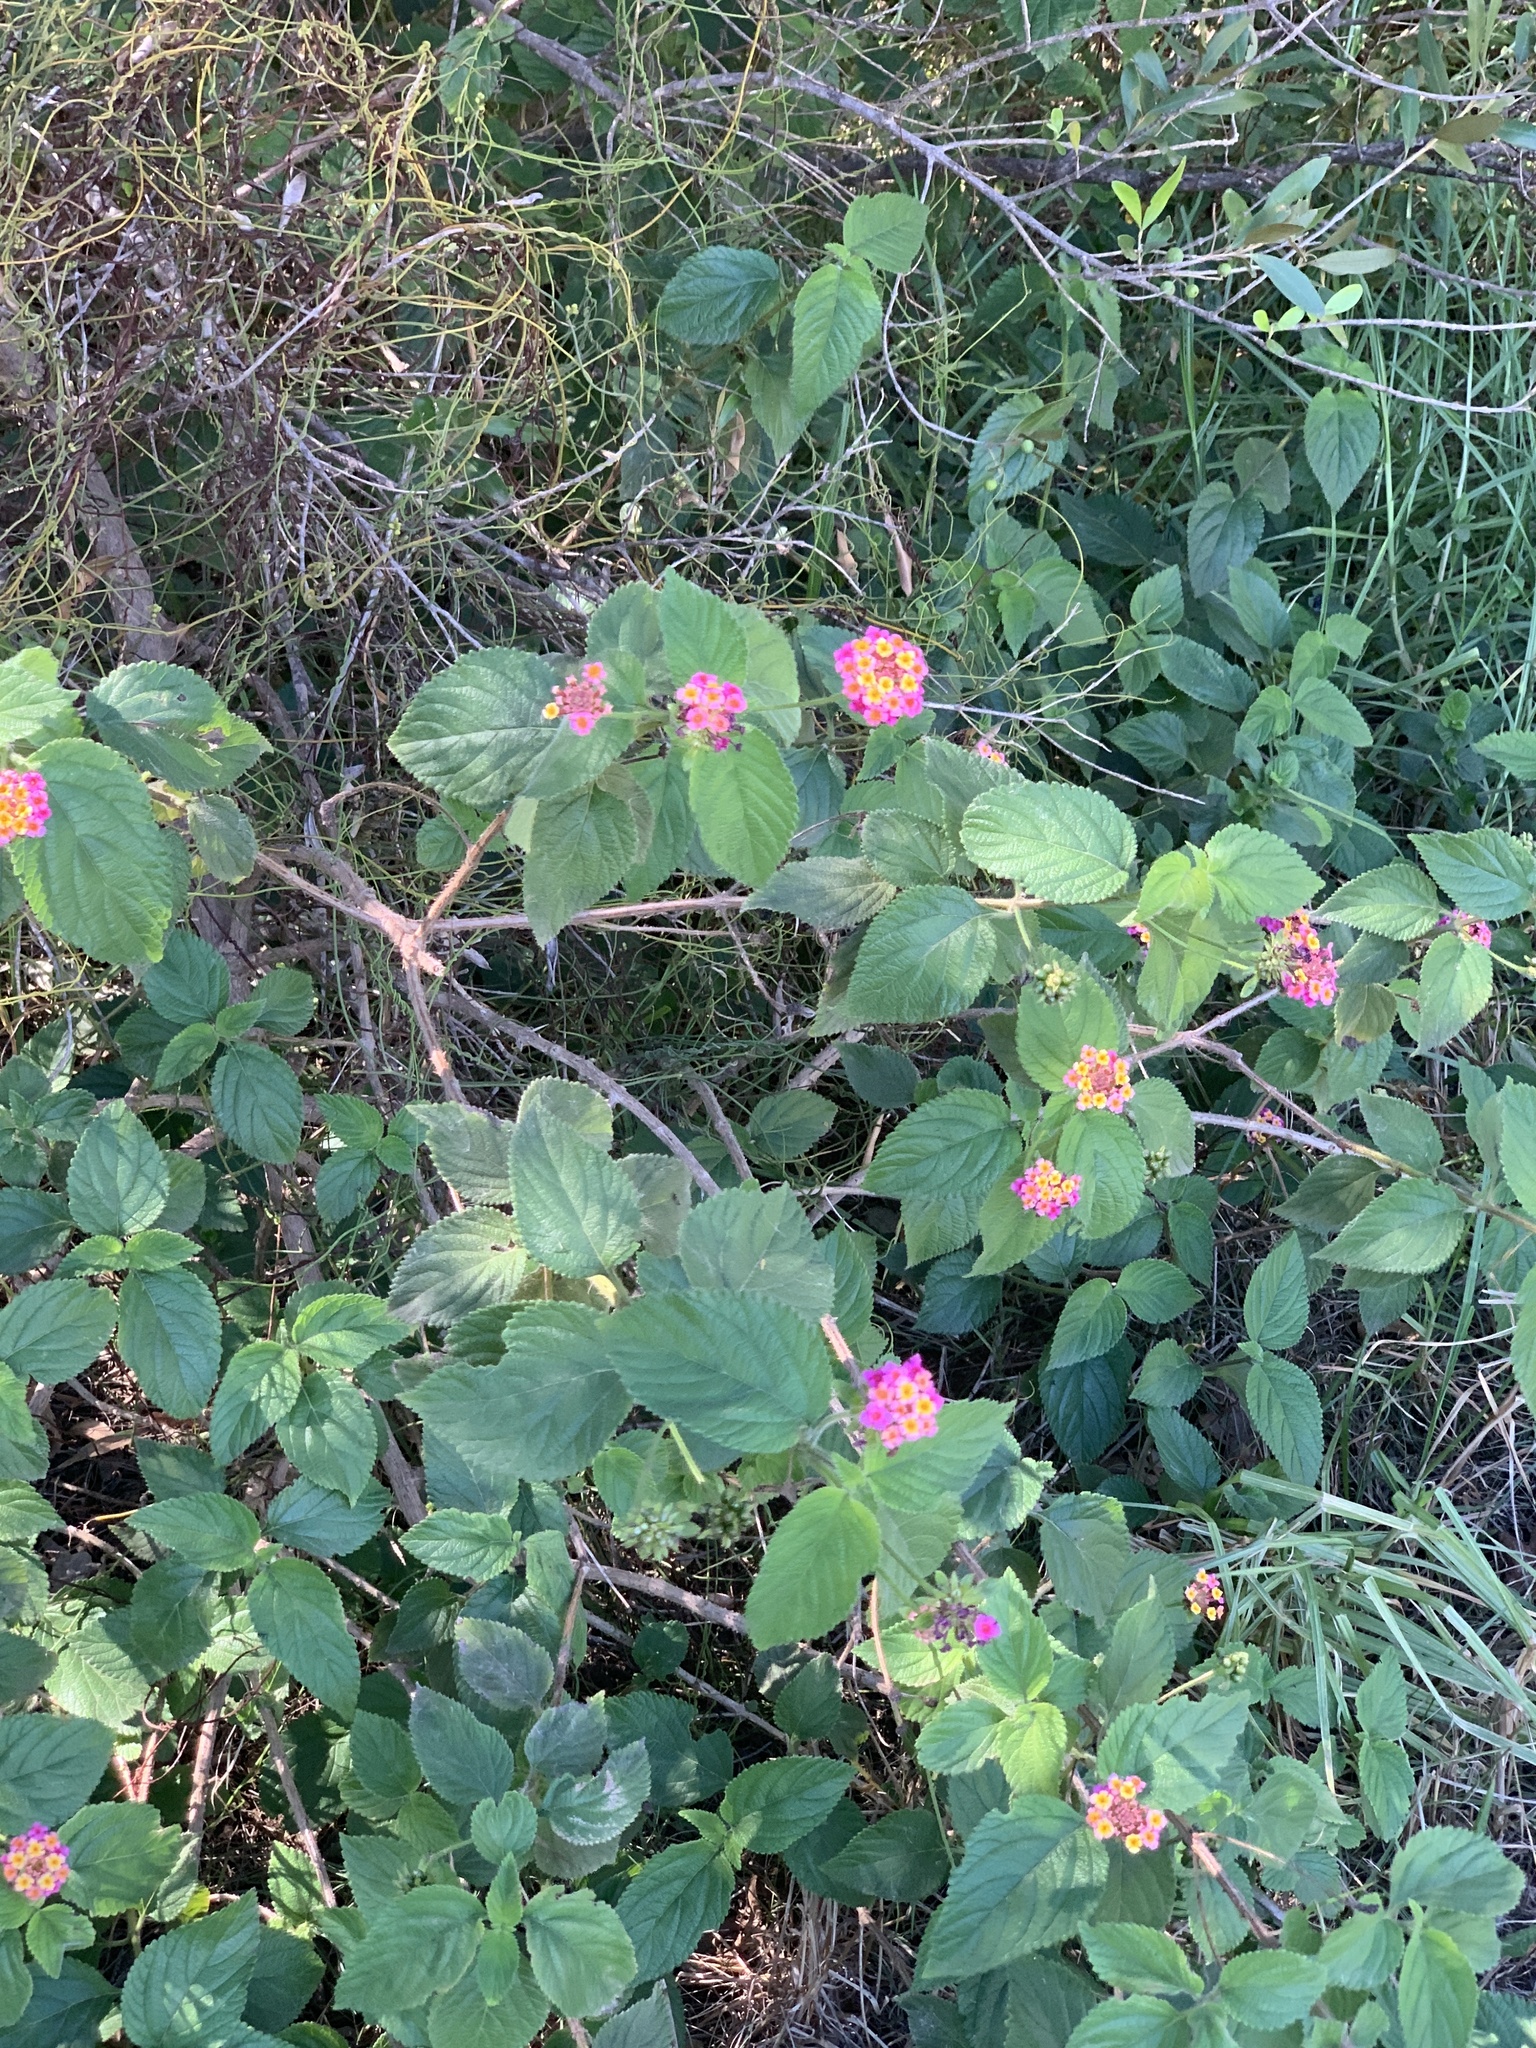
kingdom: Plantae
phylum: Tracheophyta
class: Magnoliopsida
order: Lamiales
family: Verbenaceae
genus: Lantana
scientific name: Lantana camara
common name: Lantana
